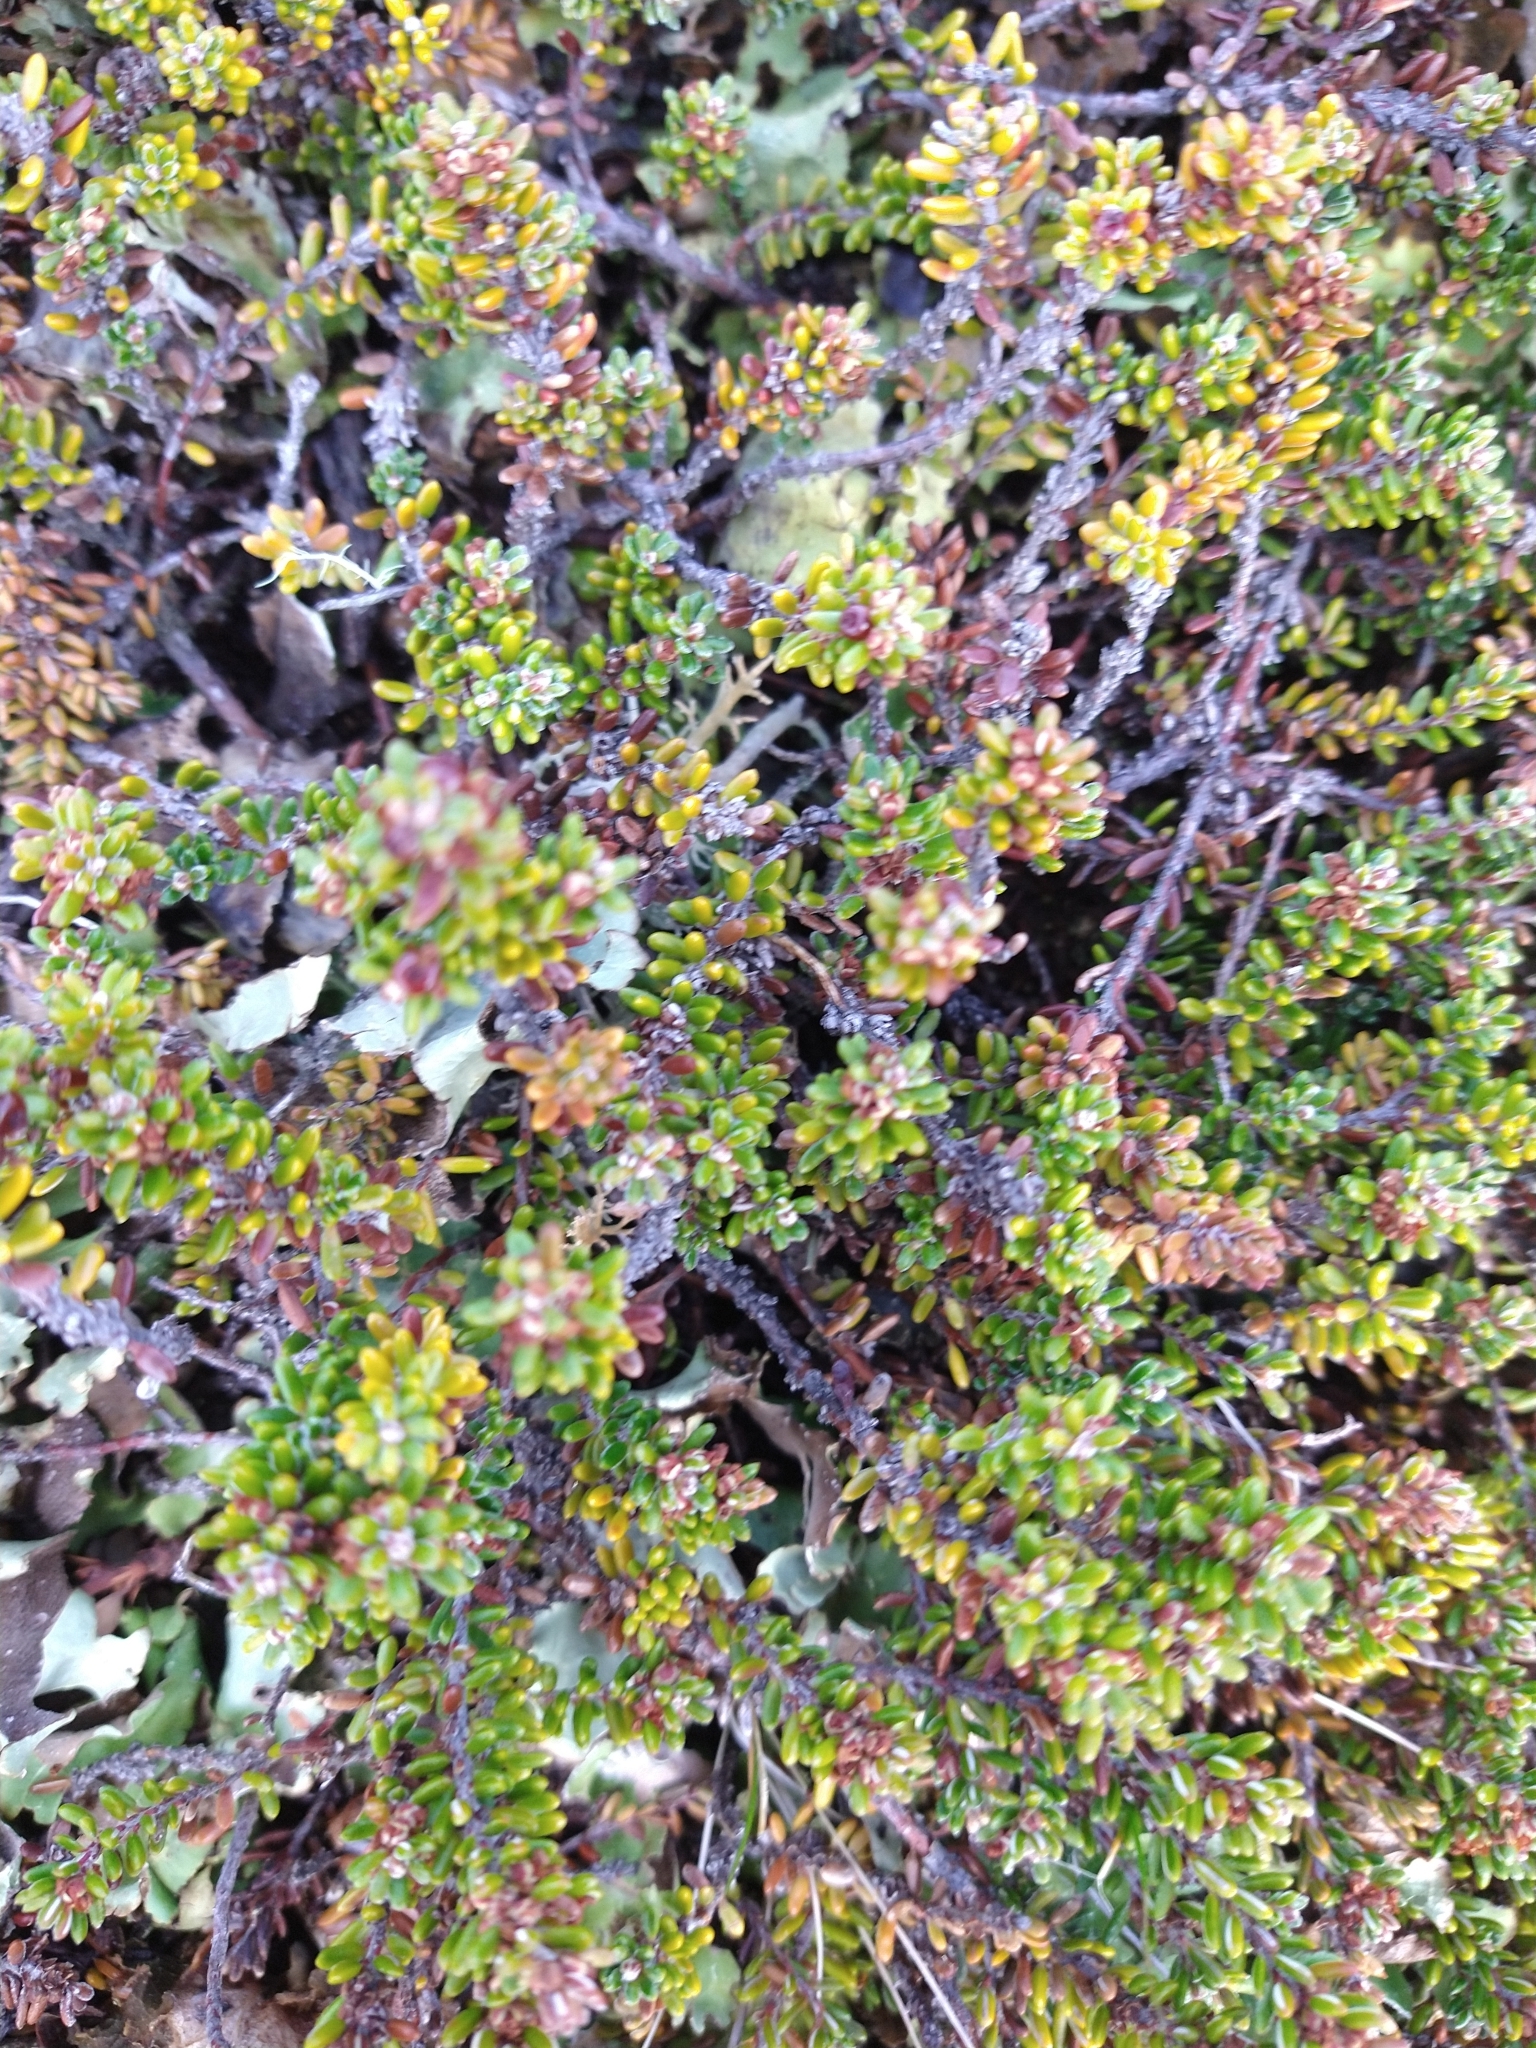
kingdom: Plantae
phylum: Tracheophyta
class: Magnoliopsida
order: Ericales
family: Ericaceae
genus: Empetrum
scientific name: Empetrum rubrum
